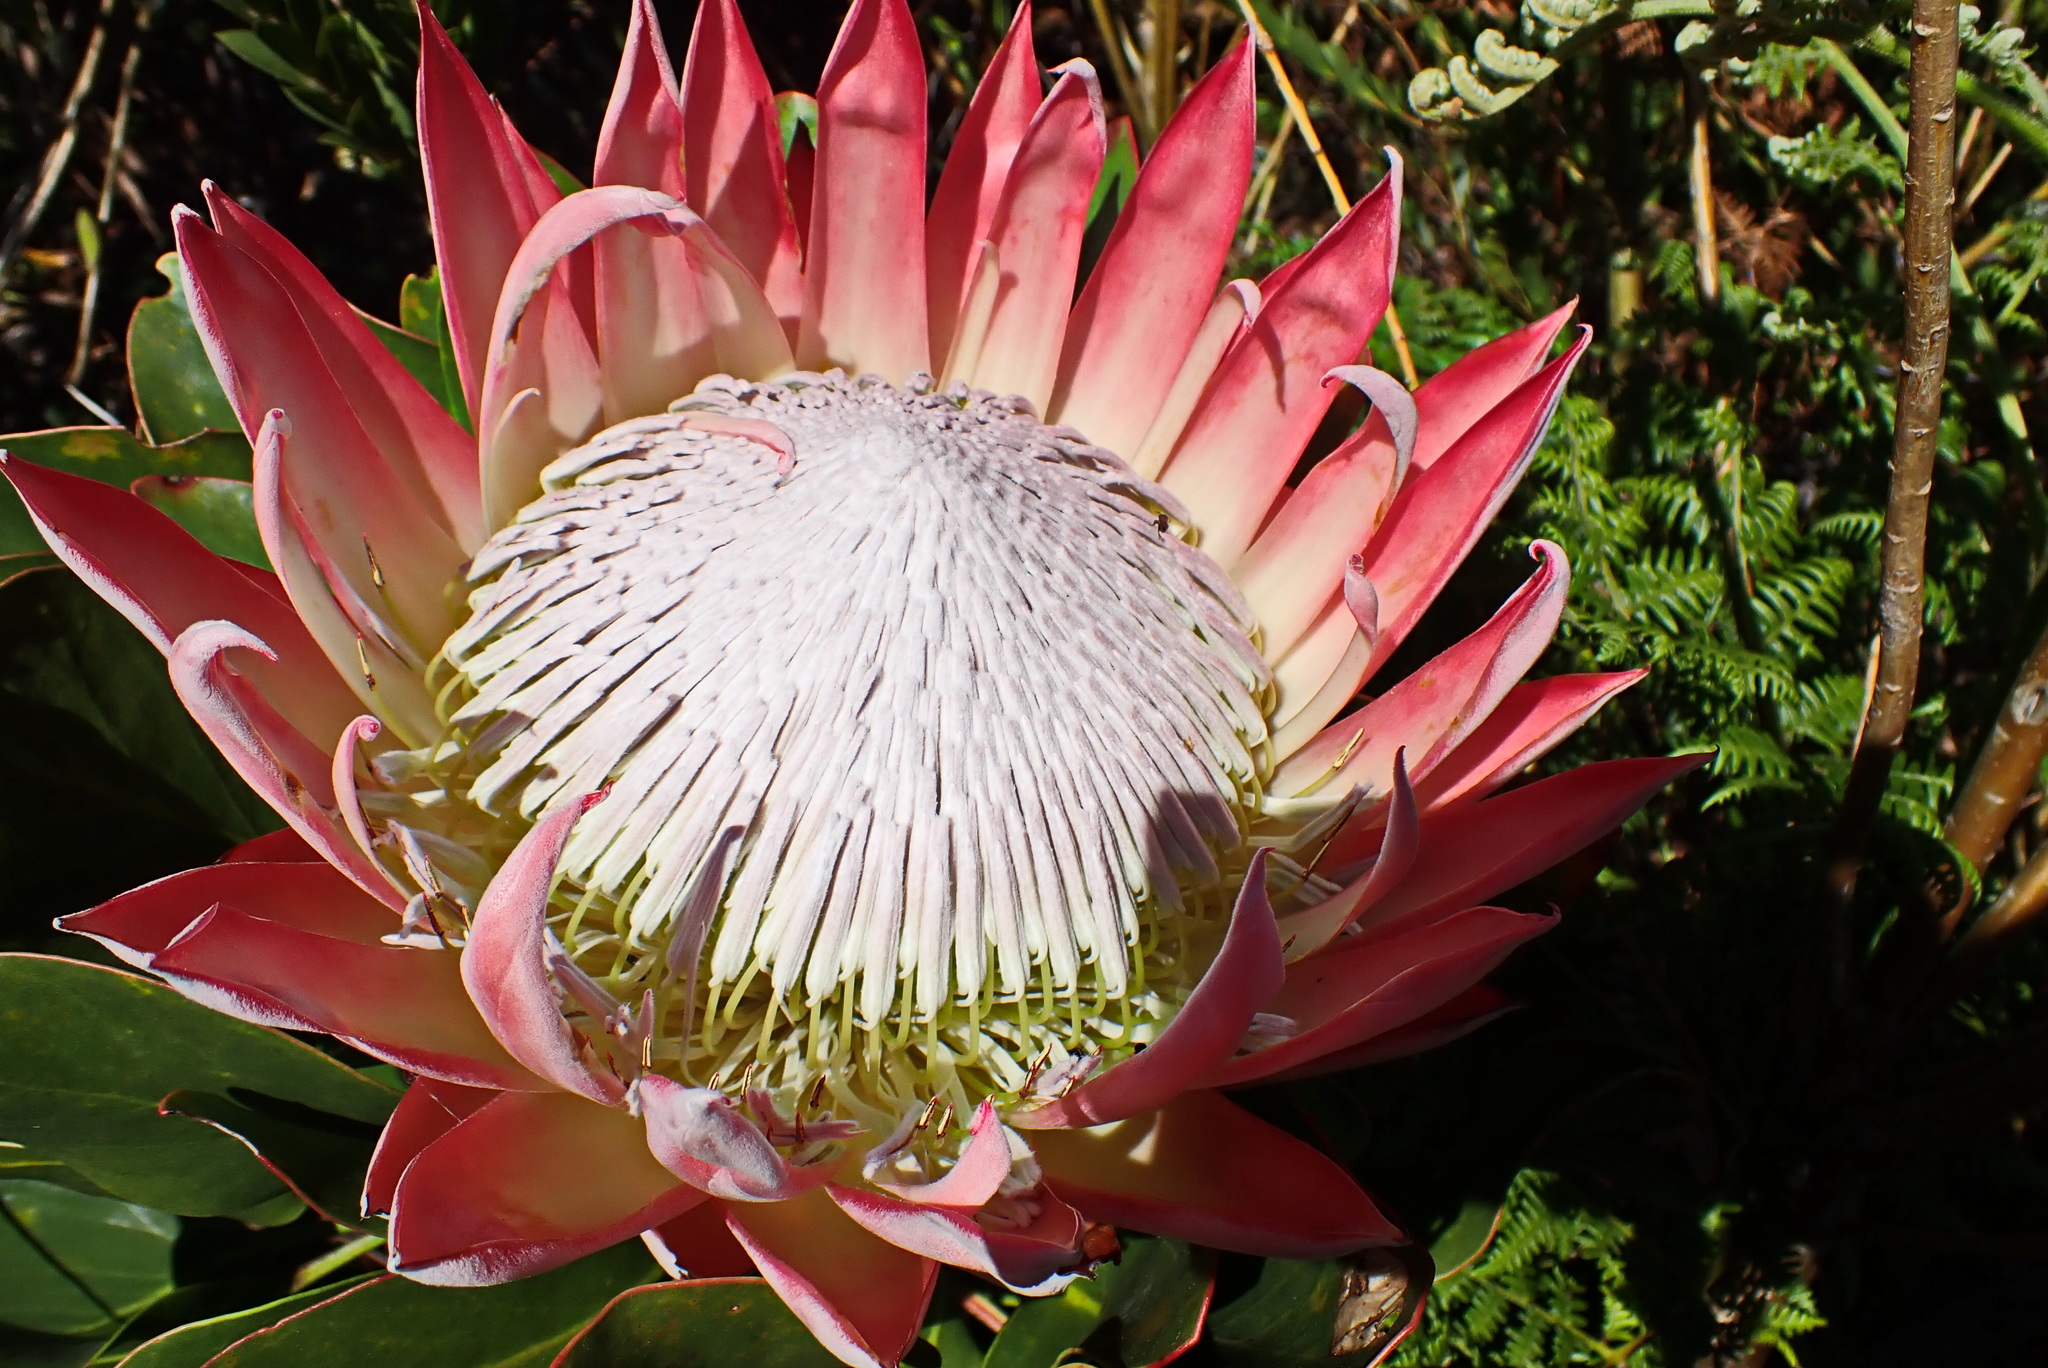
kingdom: Plantae
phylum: Tracheophyta
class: Magnoliopsida
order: Proteales
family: Proteaceae
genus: Protea
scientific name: Protea cynaroides
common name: King protea
